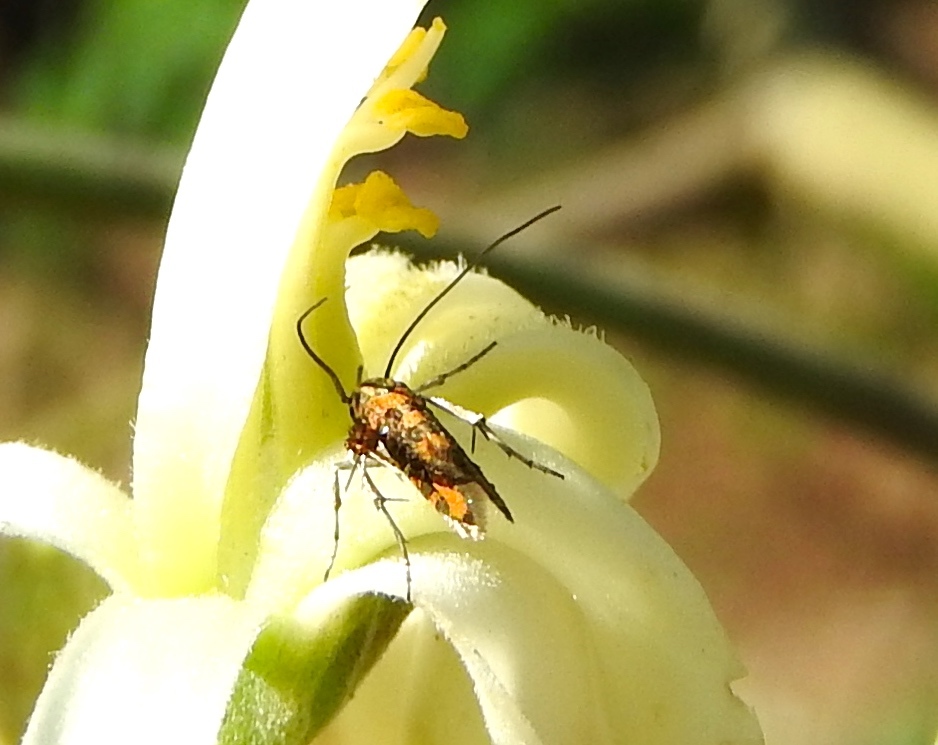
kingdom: Animalia
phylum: Arthropoda
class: Insecta
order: Lepidoptera
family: Heliodinidae
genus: Heliodines
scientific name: Heliodines
